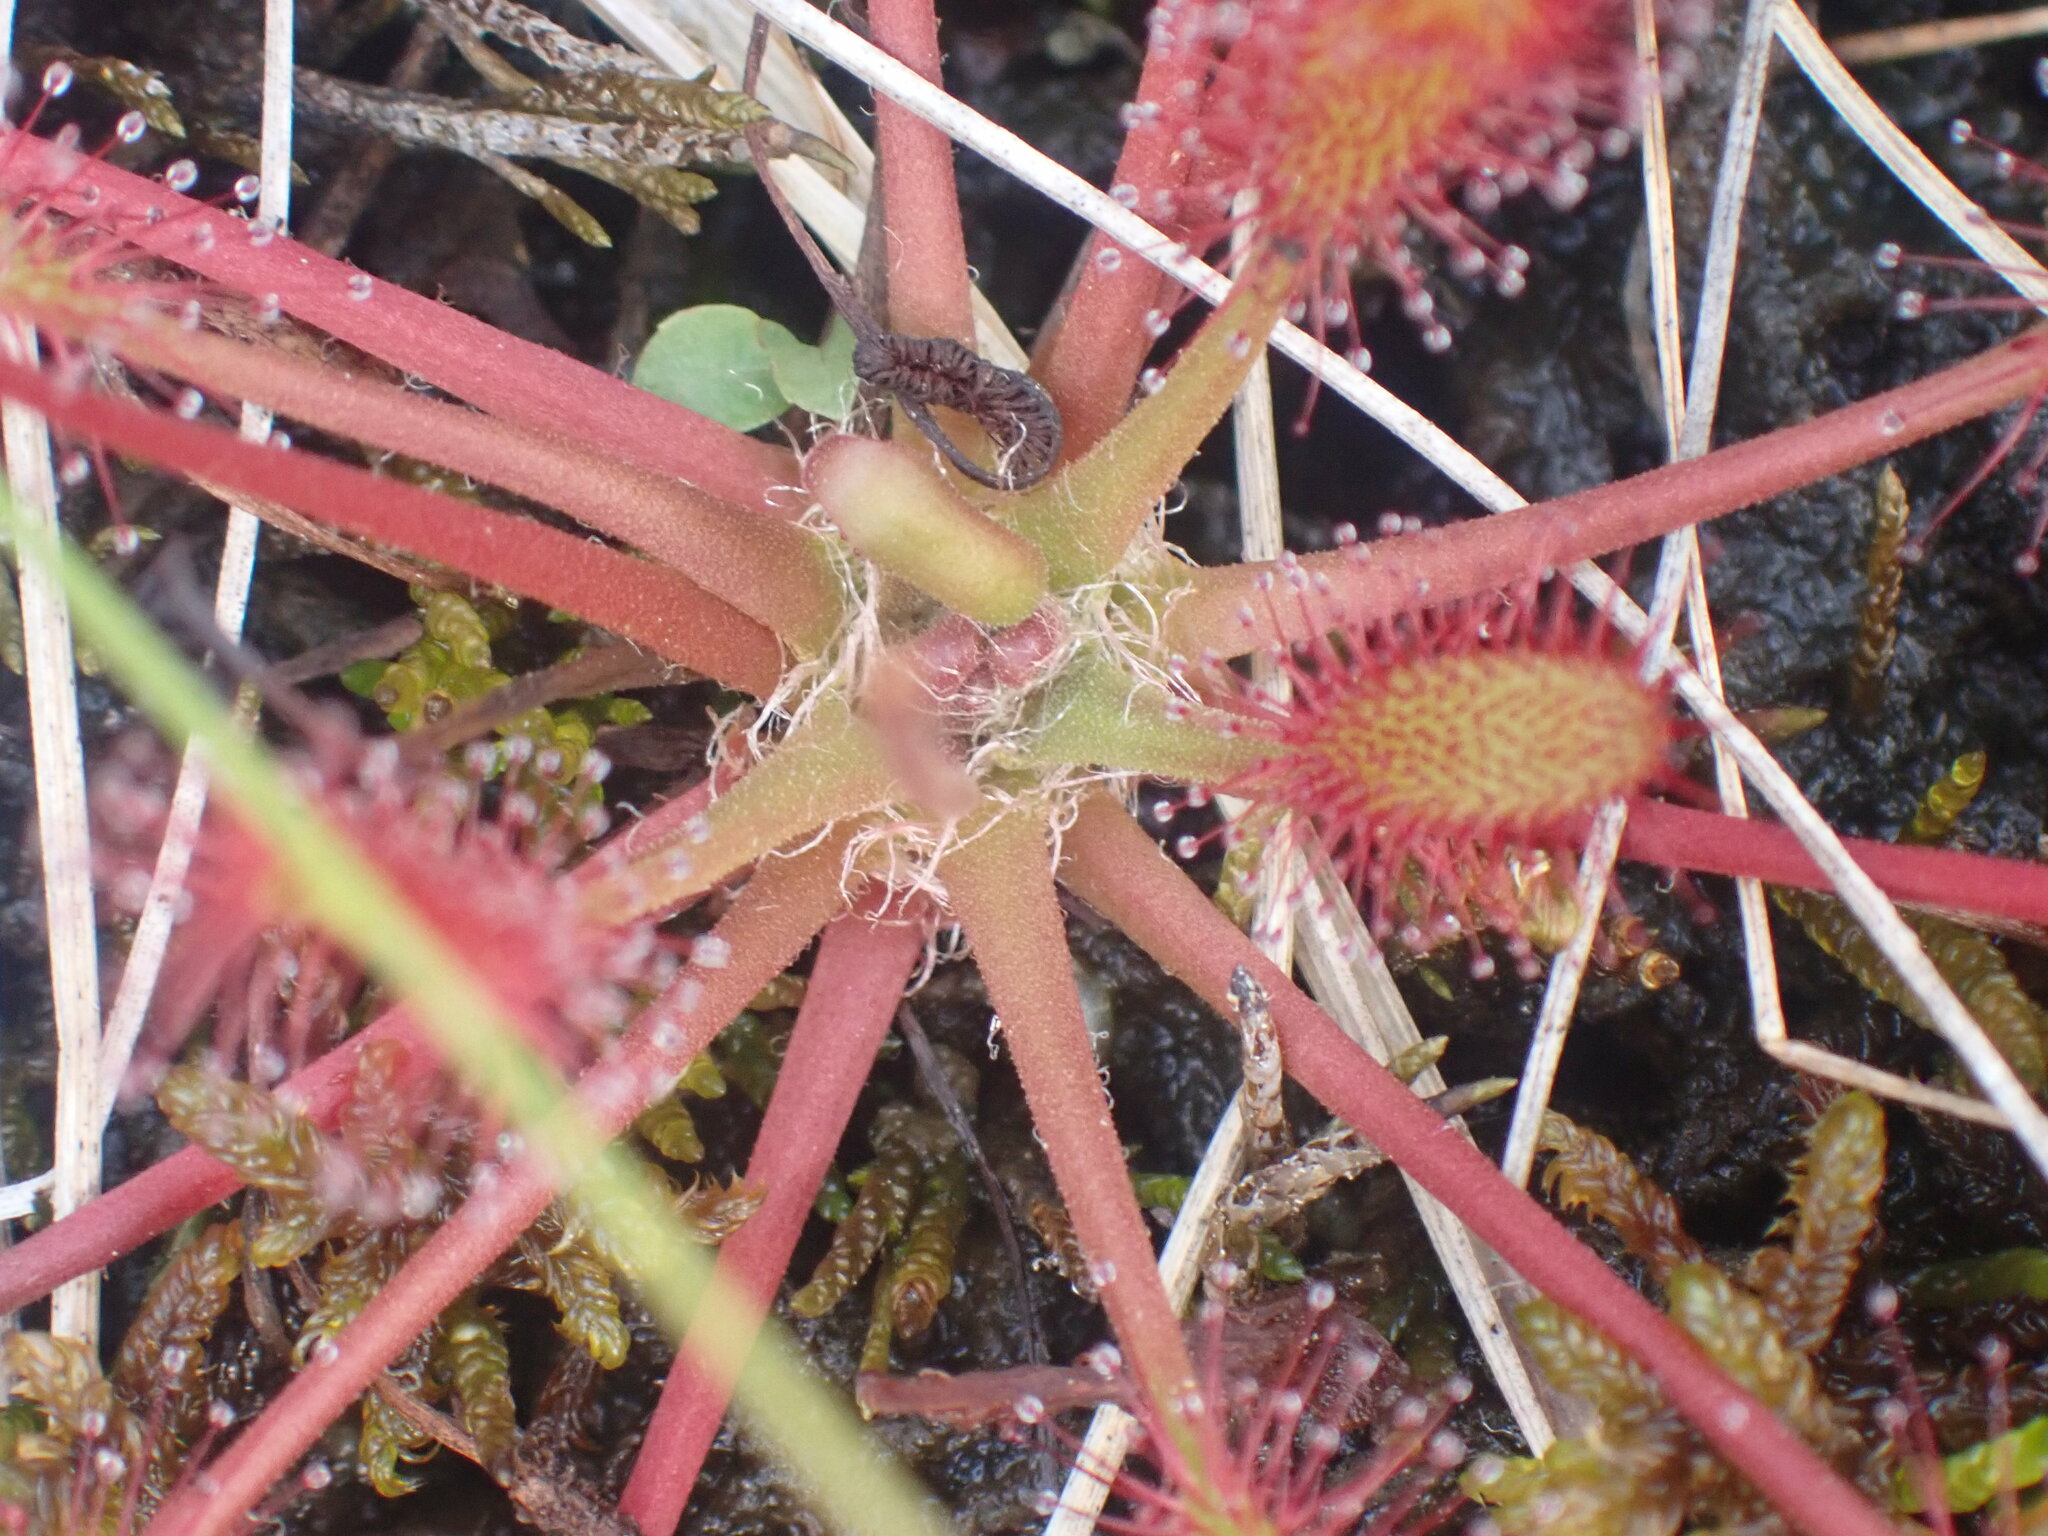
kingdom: Plantae
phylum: Tracheophyta
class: Magnoliopsida
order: Caryophyllales
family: Droseraceae
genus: Drosera
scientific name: Drosera anglica
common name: Great sundew
